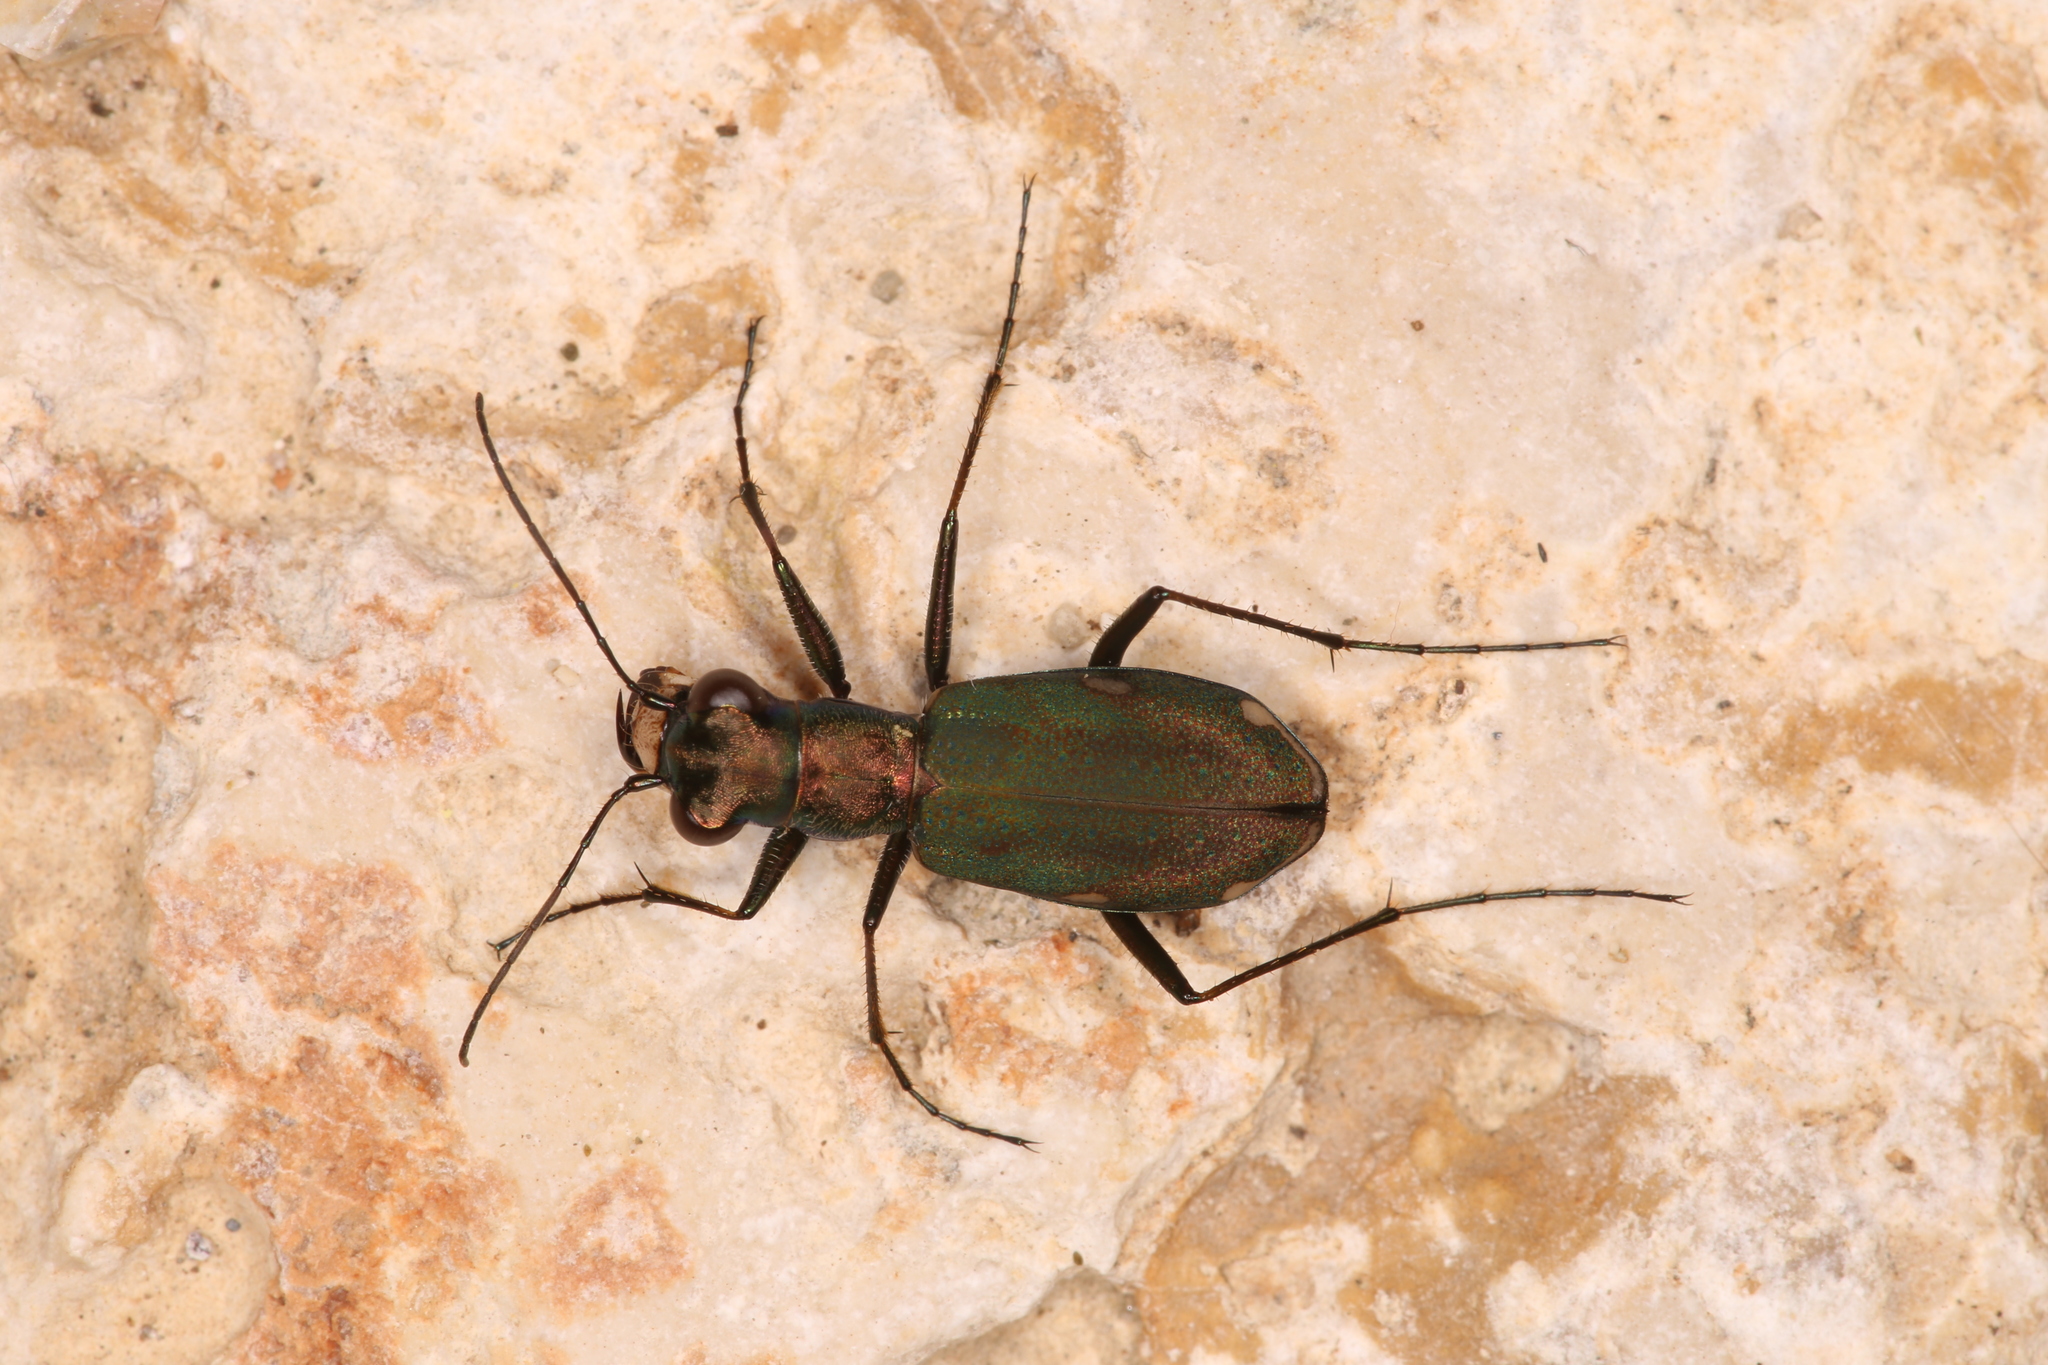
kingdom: Animalia
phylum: Arthropoda
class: Insecta
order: Coleoptera
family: Carabidae
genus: Cylindera
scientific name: Cylindera germanica
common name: Cliff tiger beetle
